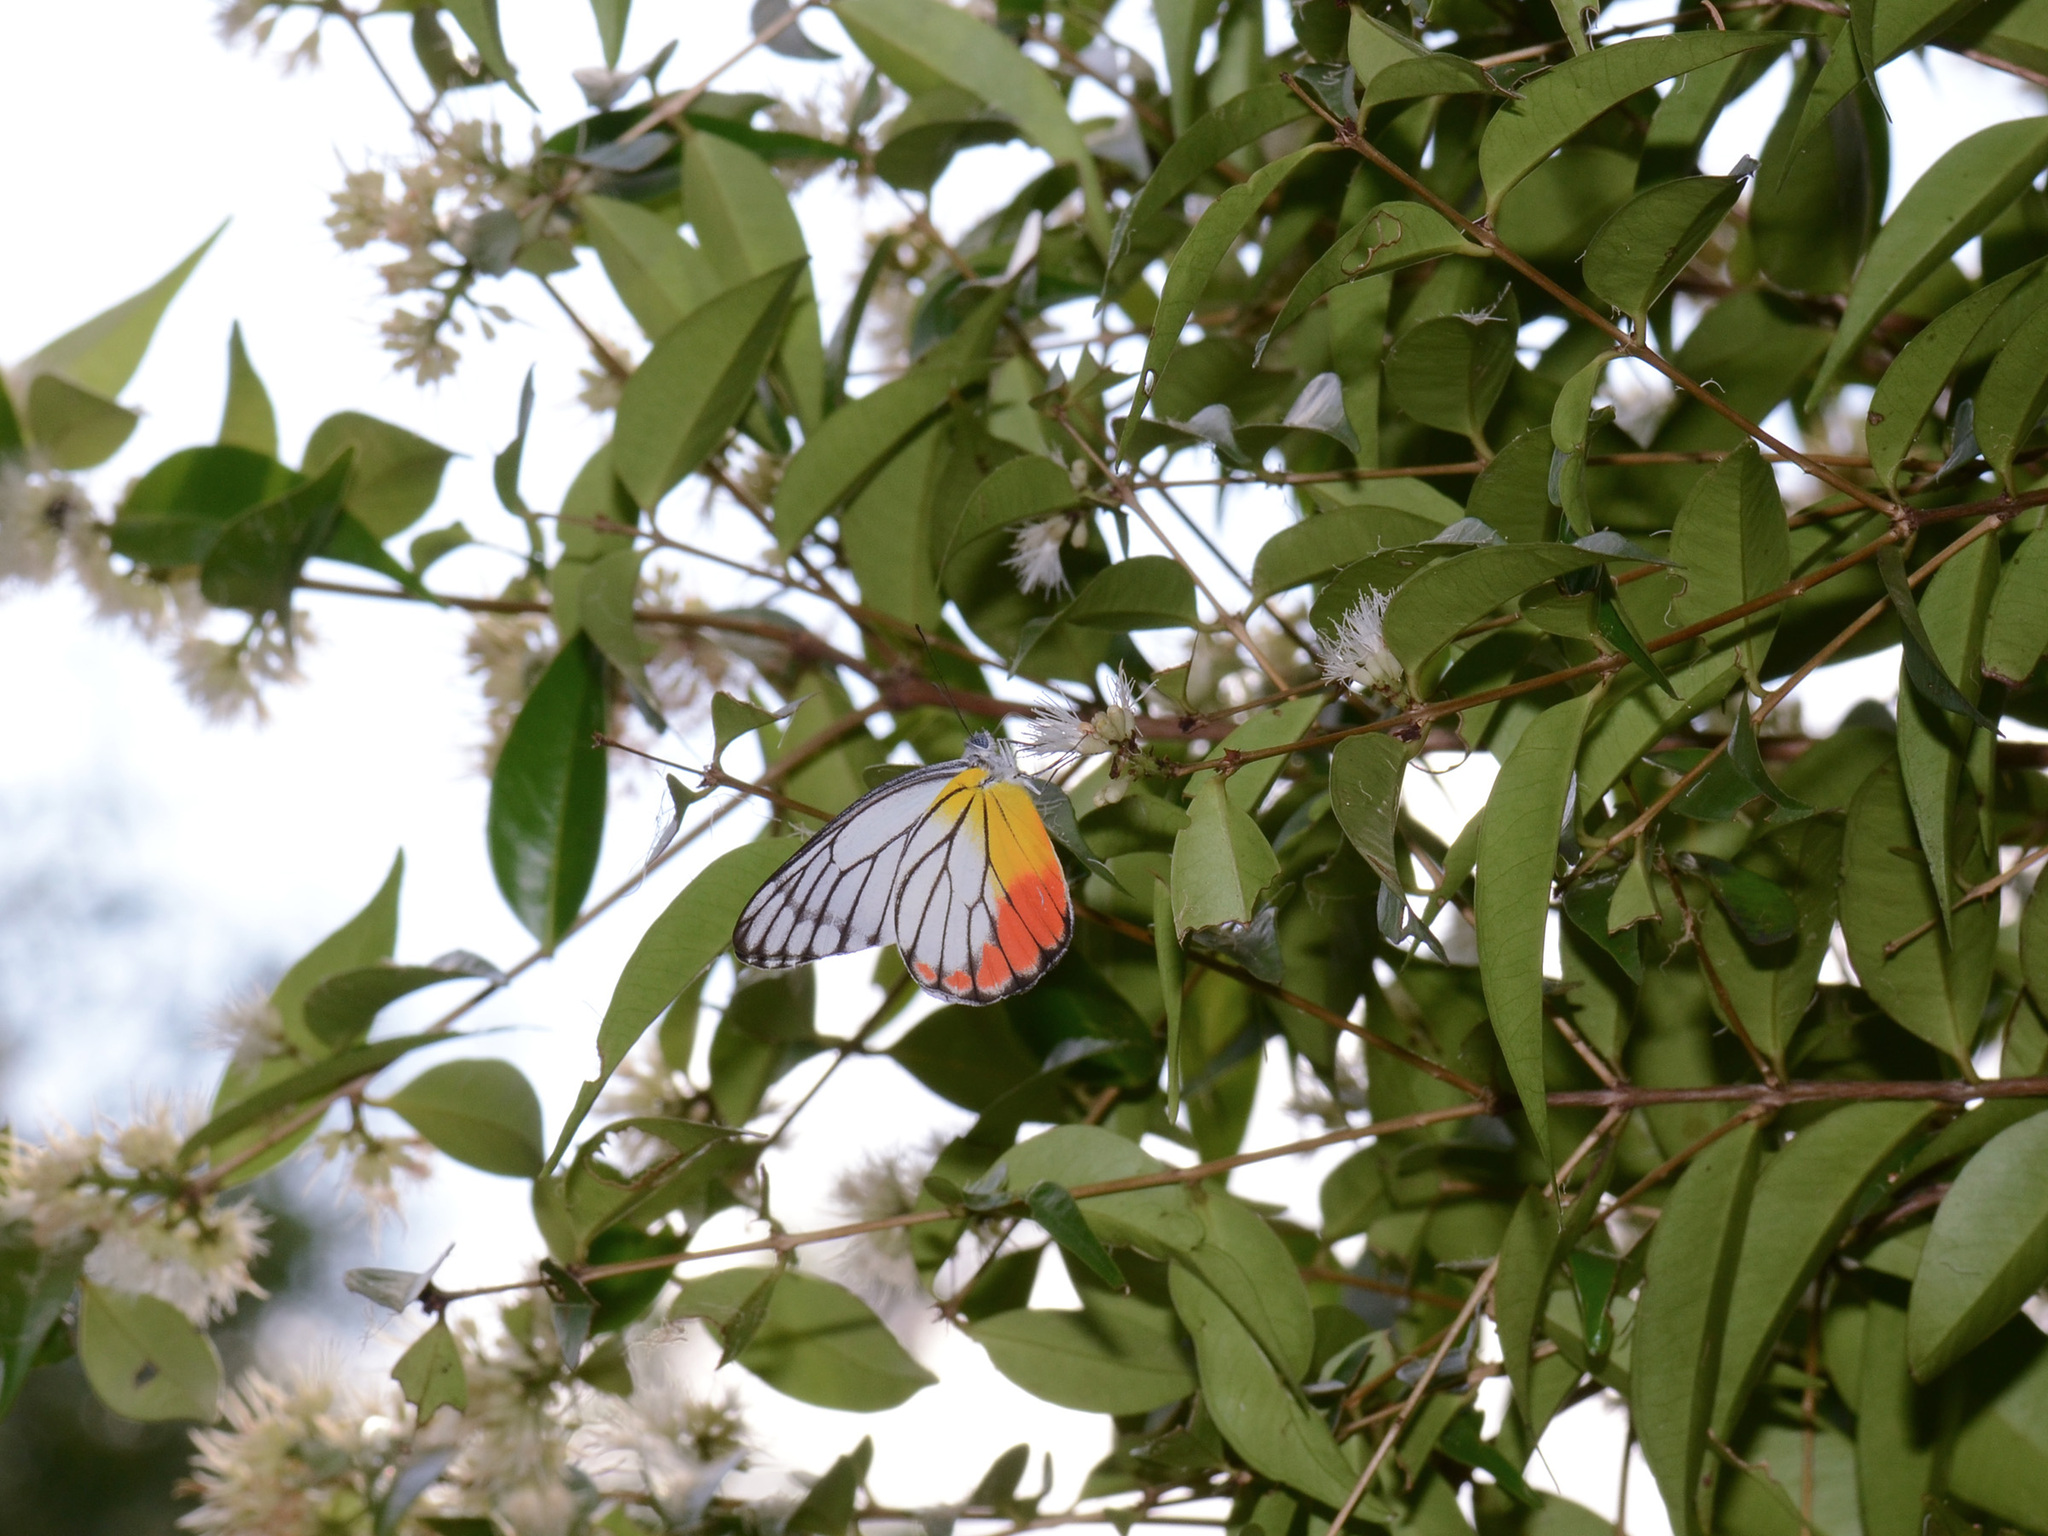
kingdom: Animalia
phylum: Arthropoda
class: Insecta
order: Lepidoptera
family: Pieridae
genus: Delias
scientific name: Delias hyparete
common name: Painted jezebel
